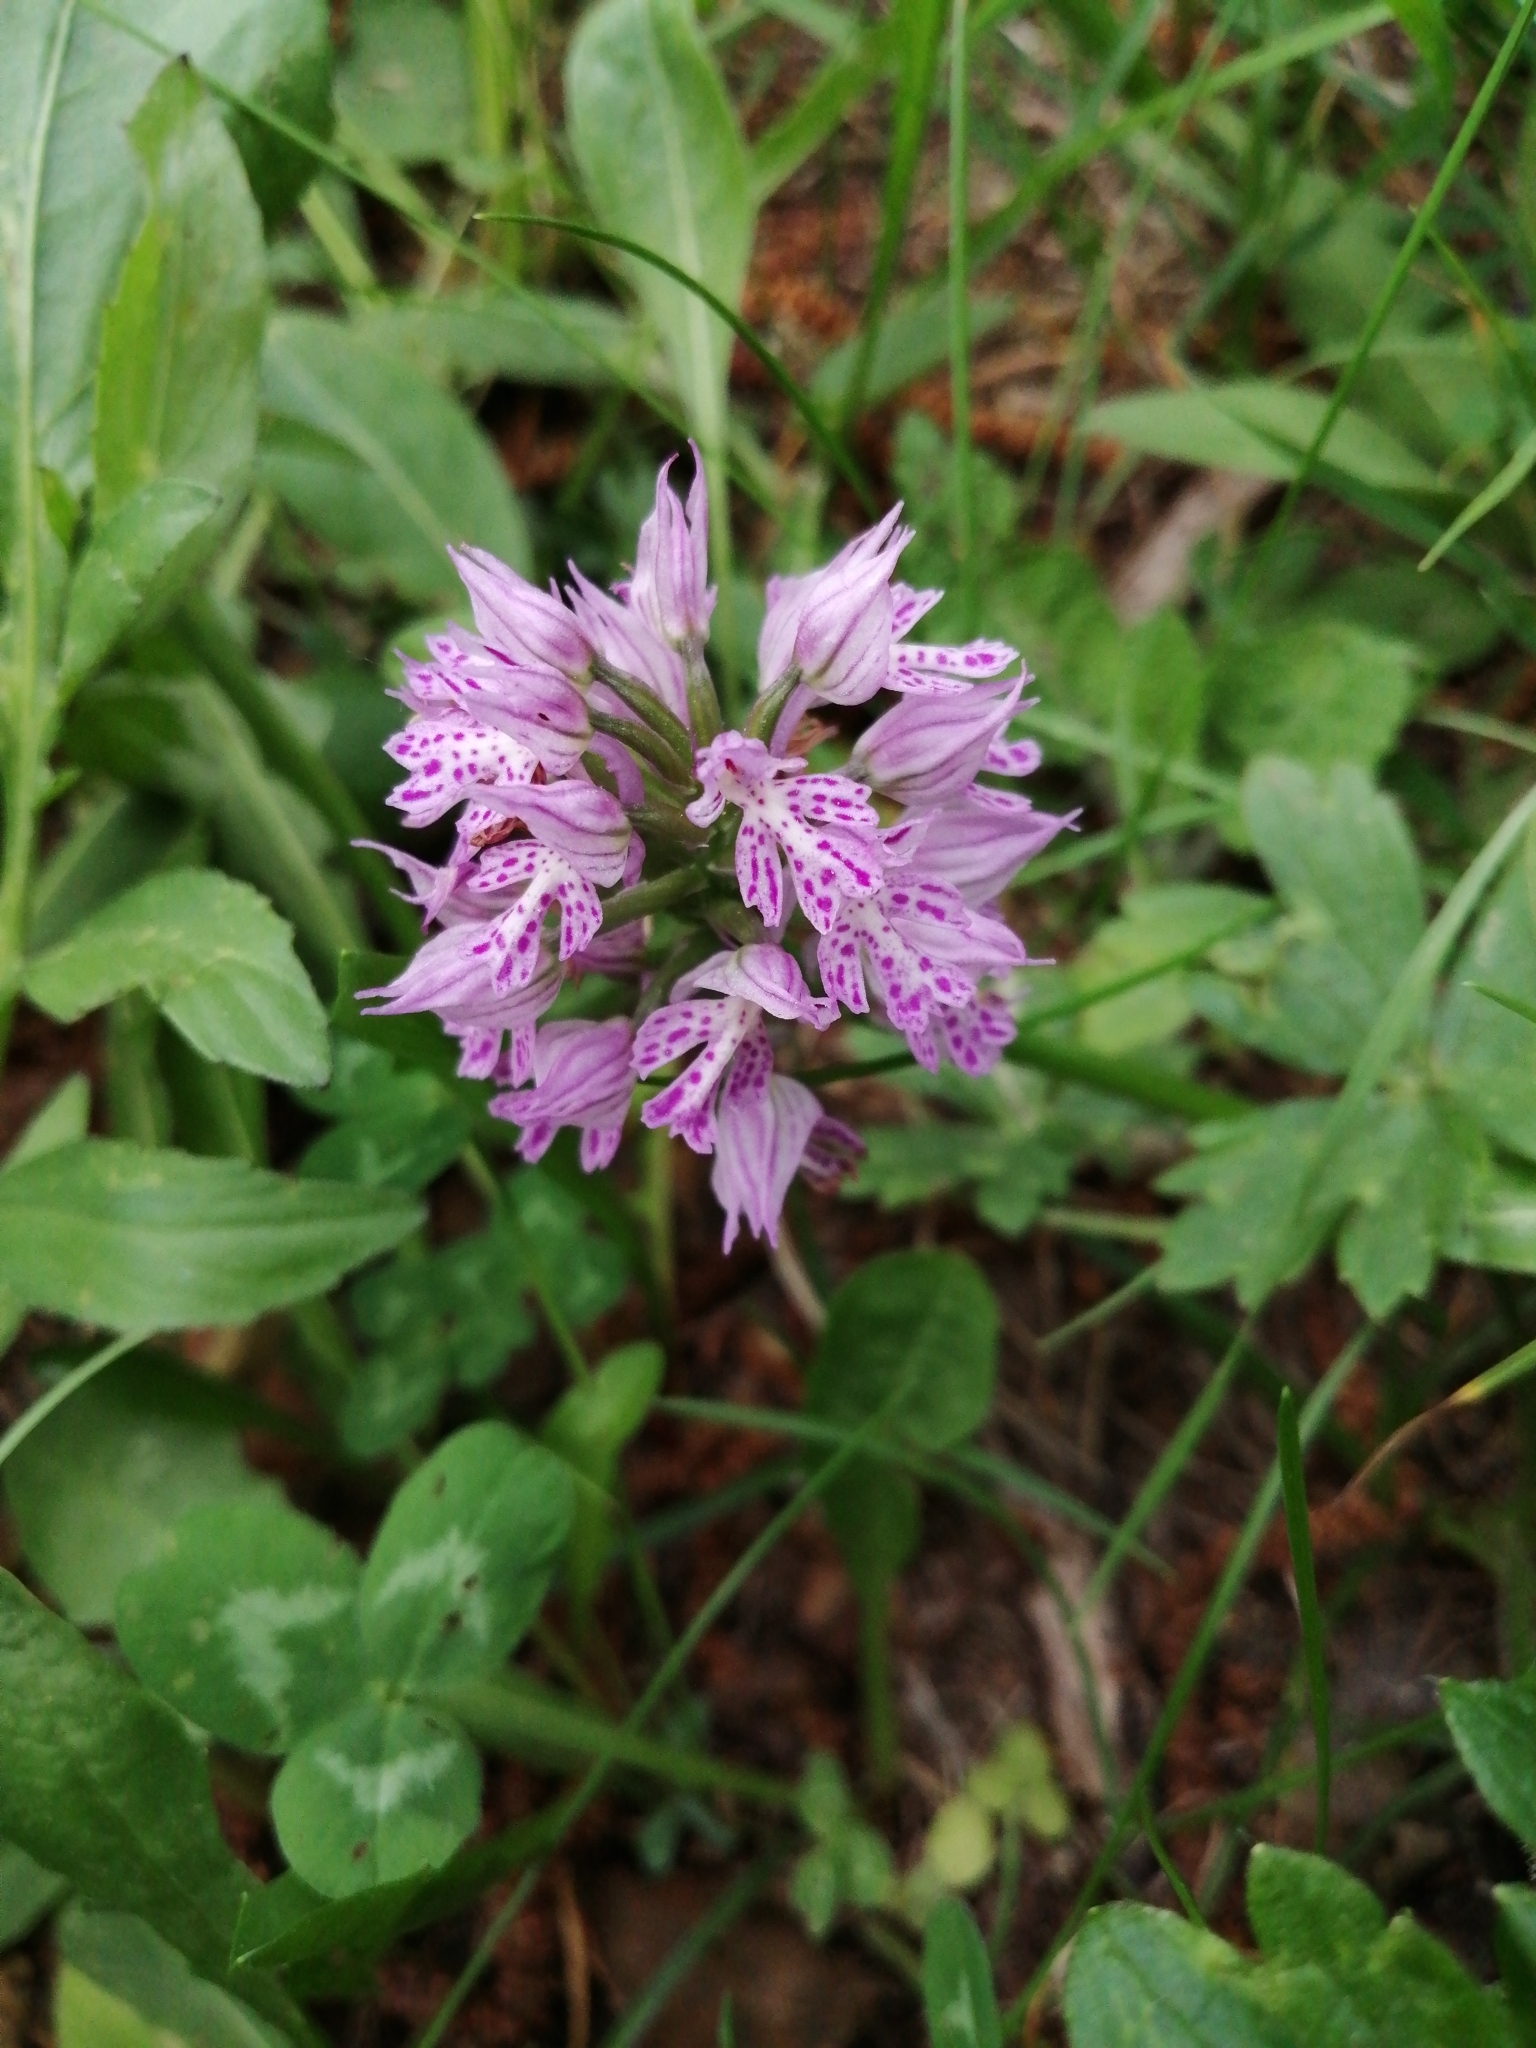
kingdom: Plantae
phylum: Tracheophyta
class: Liliopsida
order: Asparagales
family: Orchidaceae
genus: Neotinea
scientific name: Neotinea tridentata
